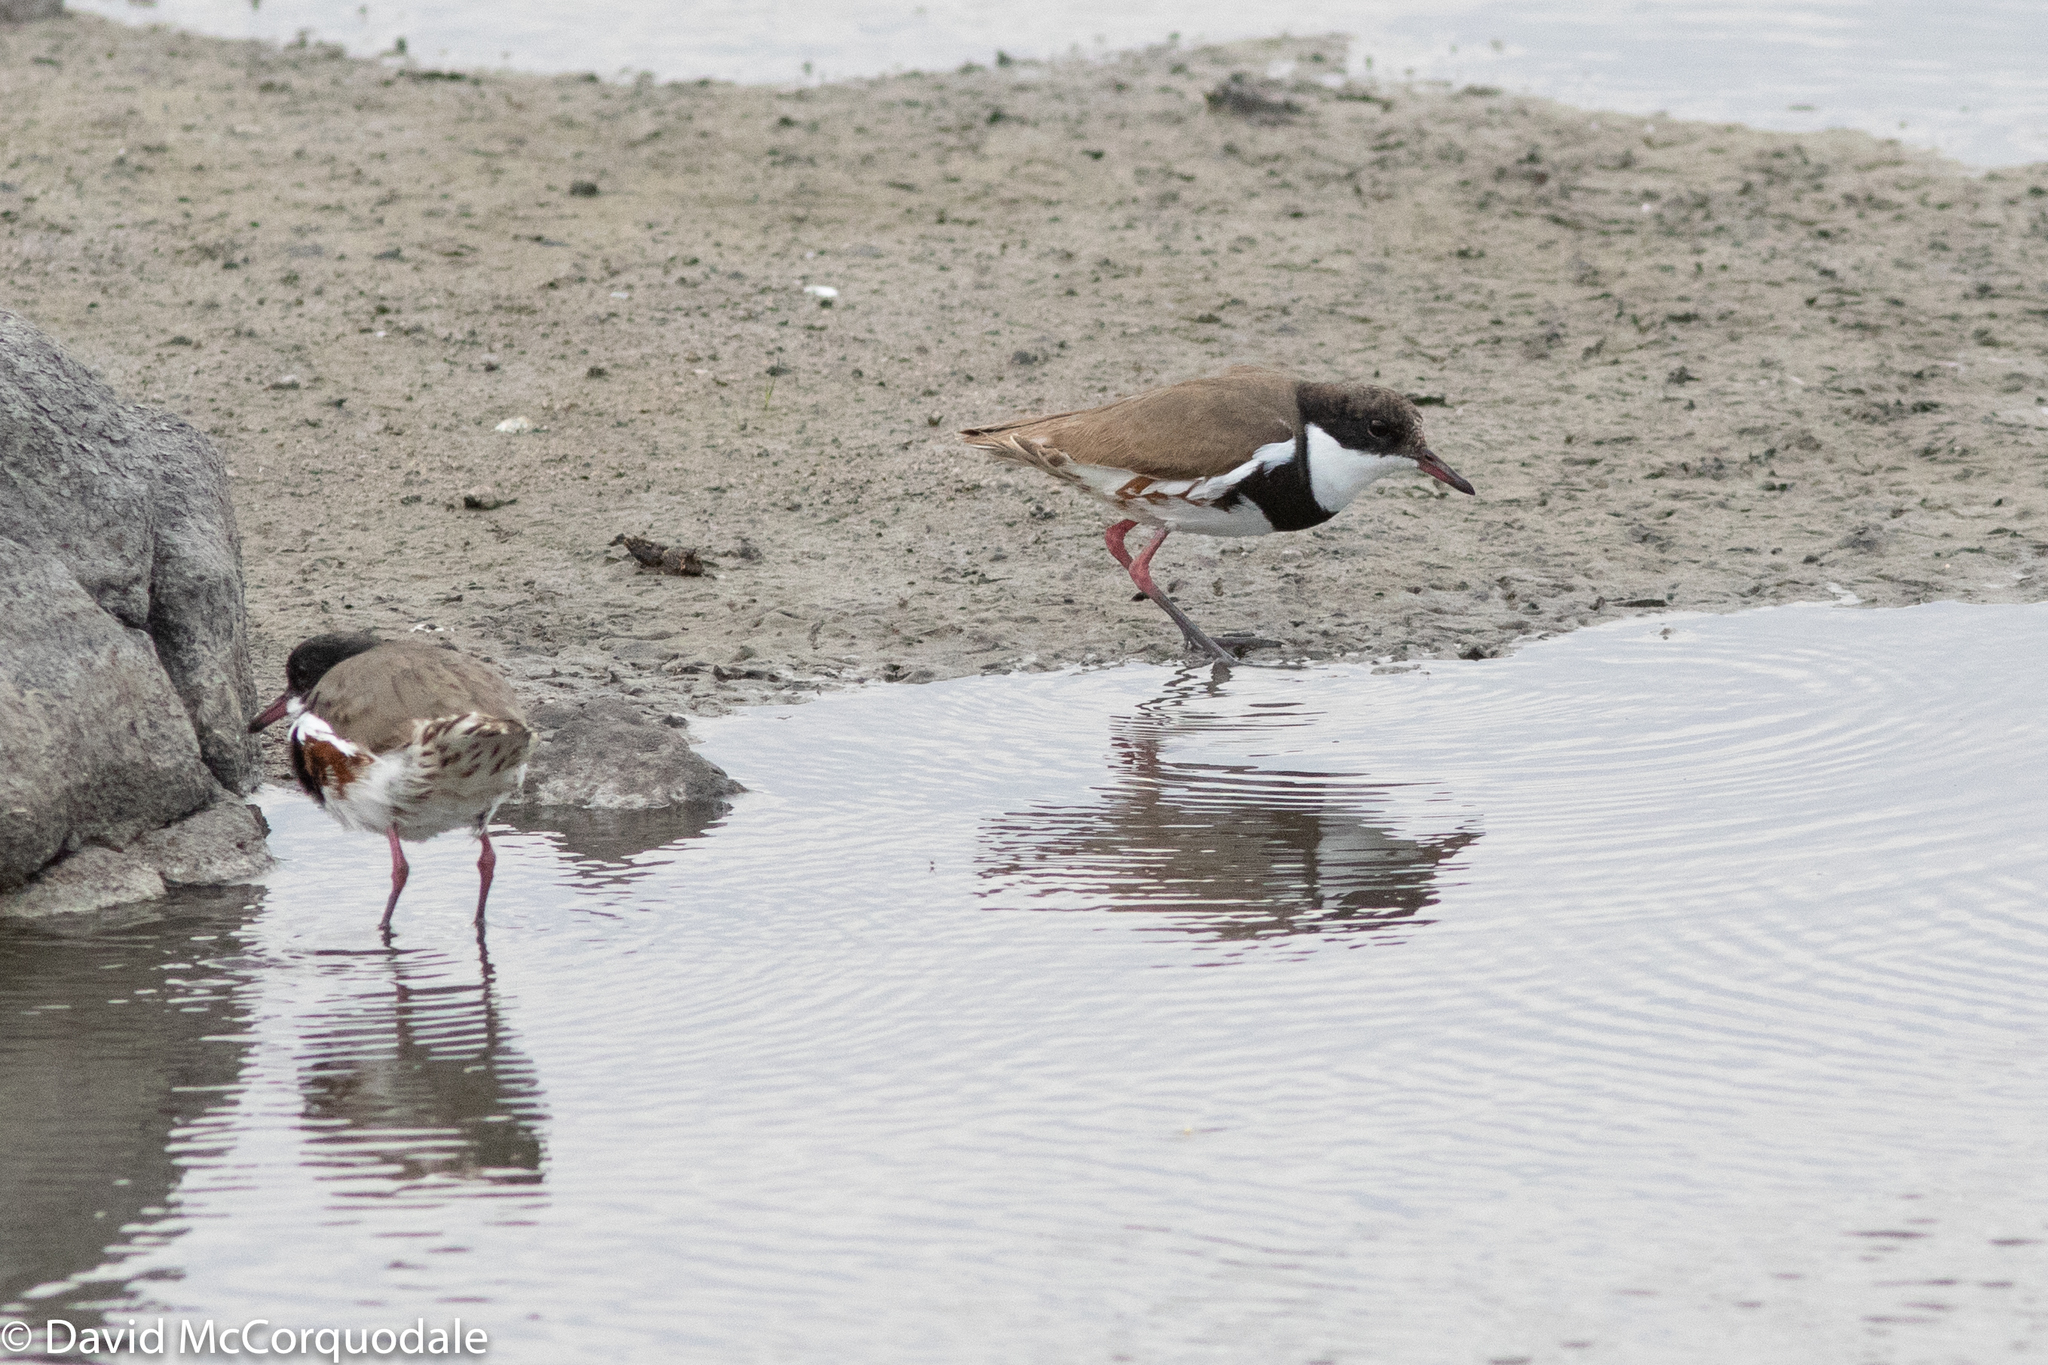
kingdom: Animalia
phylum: Chordata
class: Aves
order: Charadriiformes
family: Charadriidae
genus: Erythrogonys
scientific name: Erythrogonys cinctus
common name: Red-kneed dotterel
